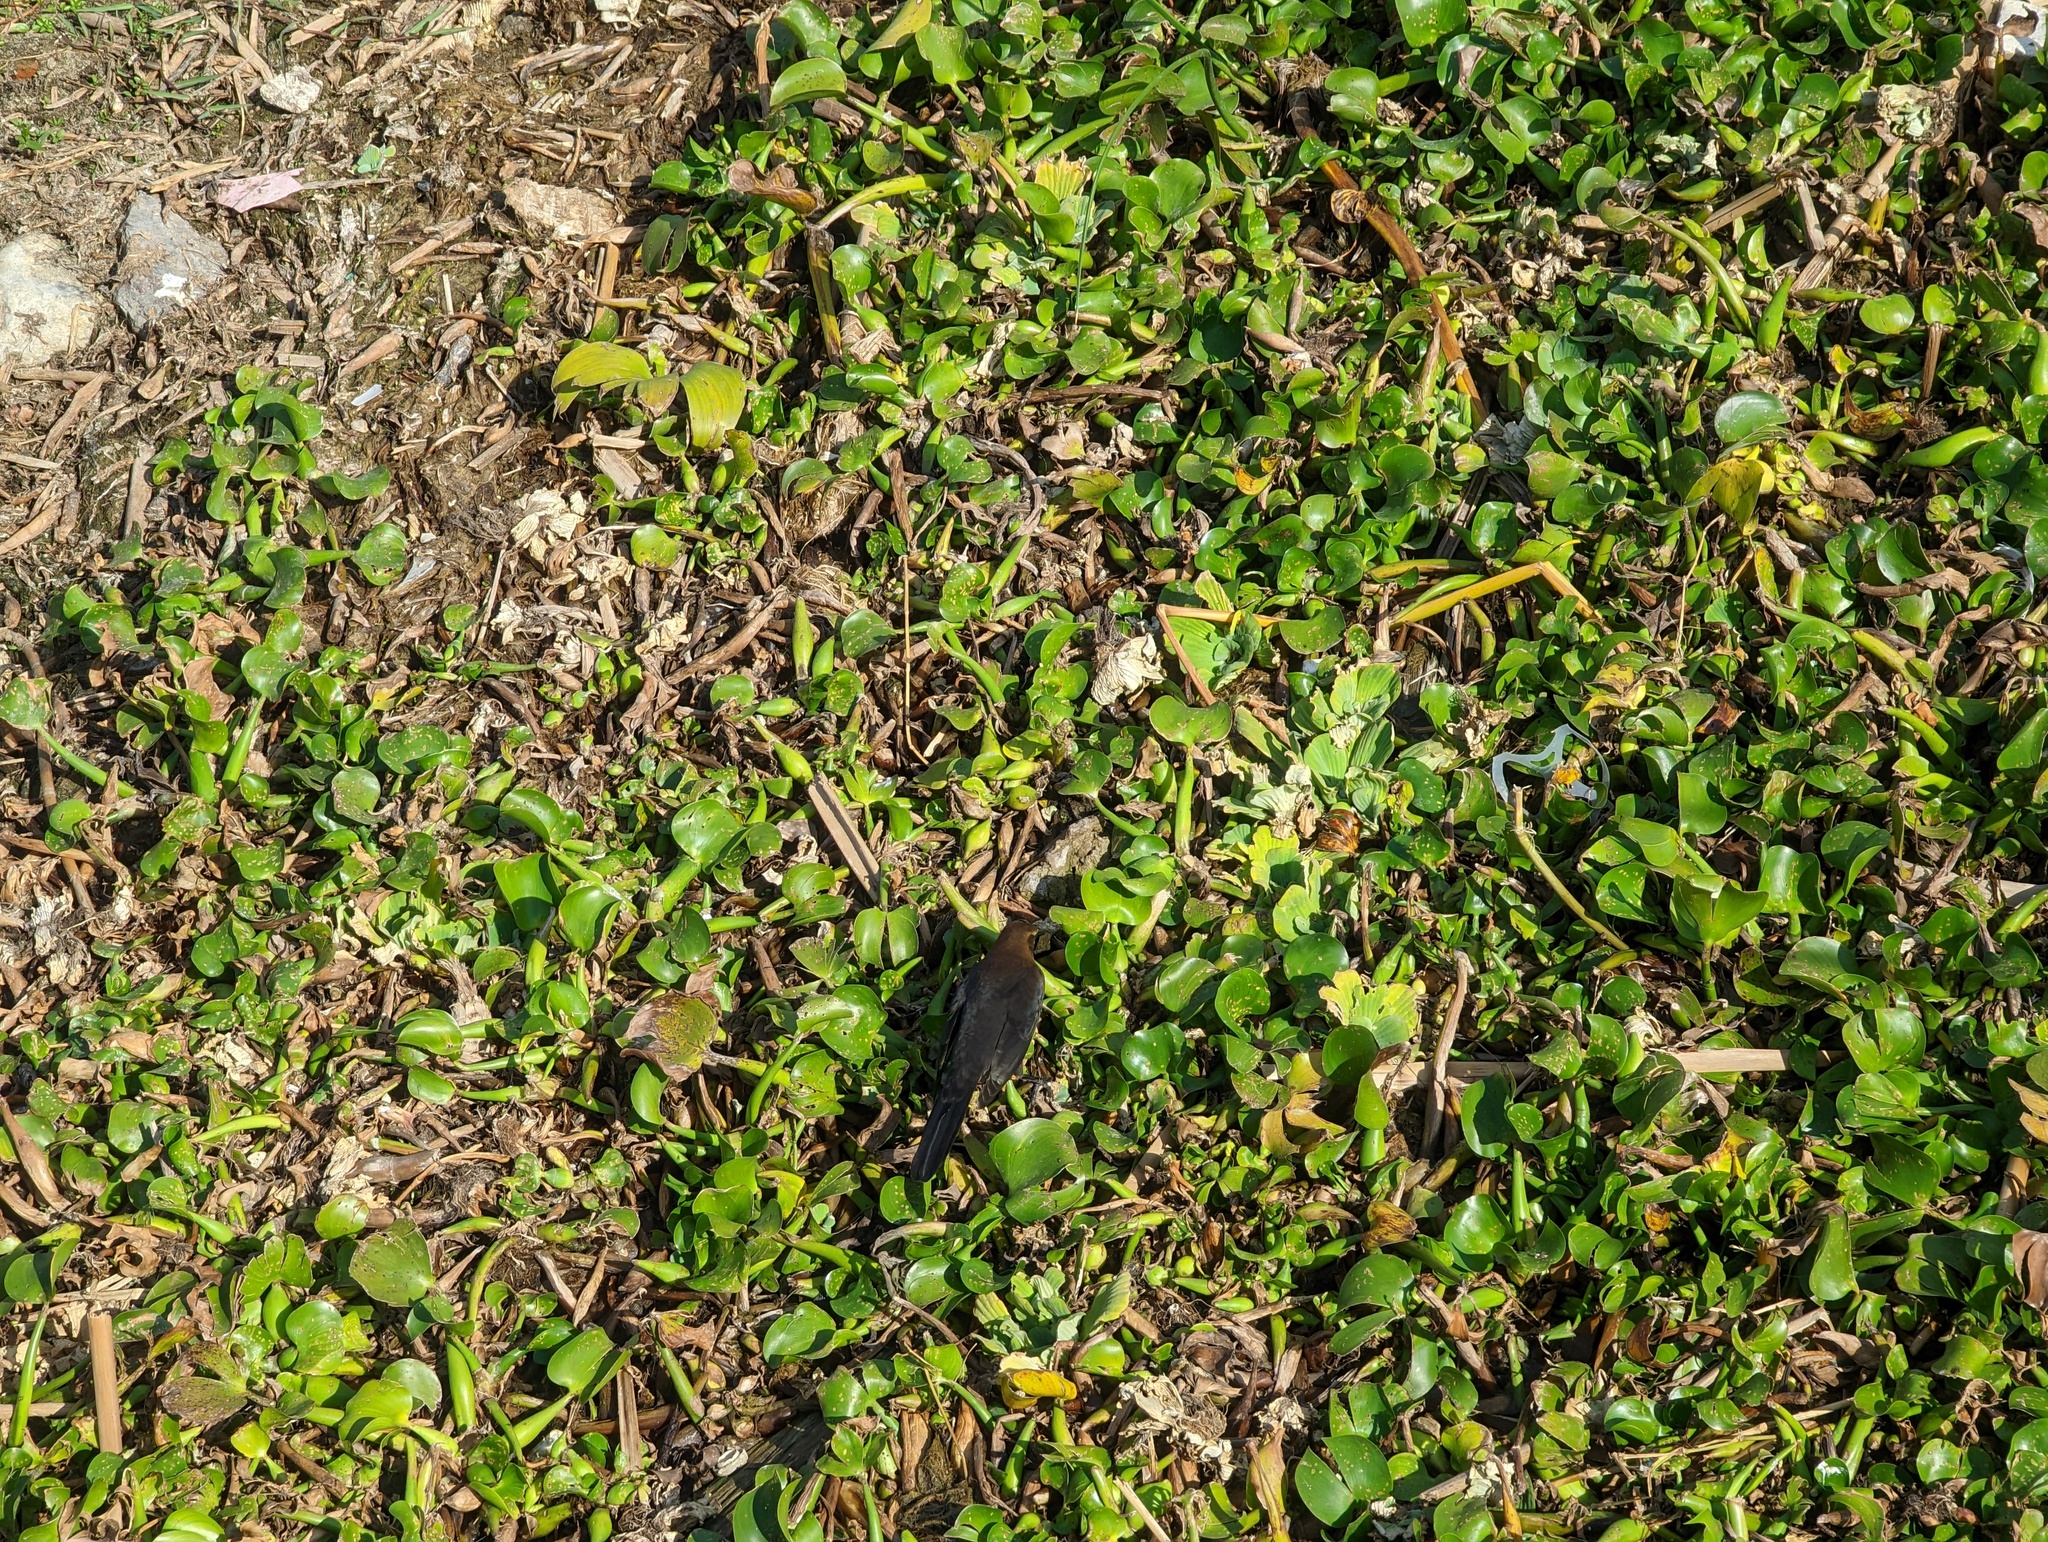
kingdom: Animalia
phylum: Chordata
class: Aves
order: Passeriformes
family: Icteridae
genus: Quiscalus
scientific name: Quiscalus mexicanus
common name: Great-tailed grackle
